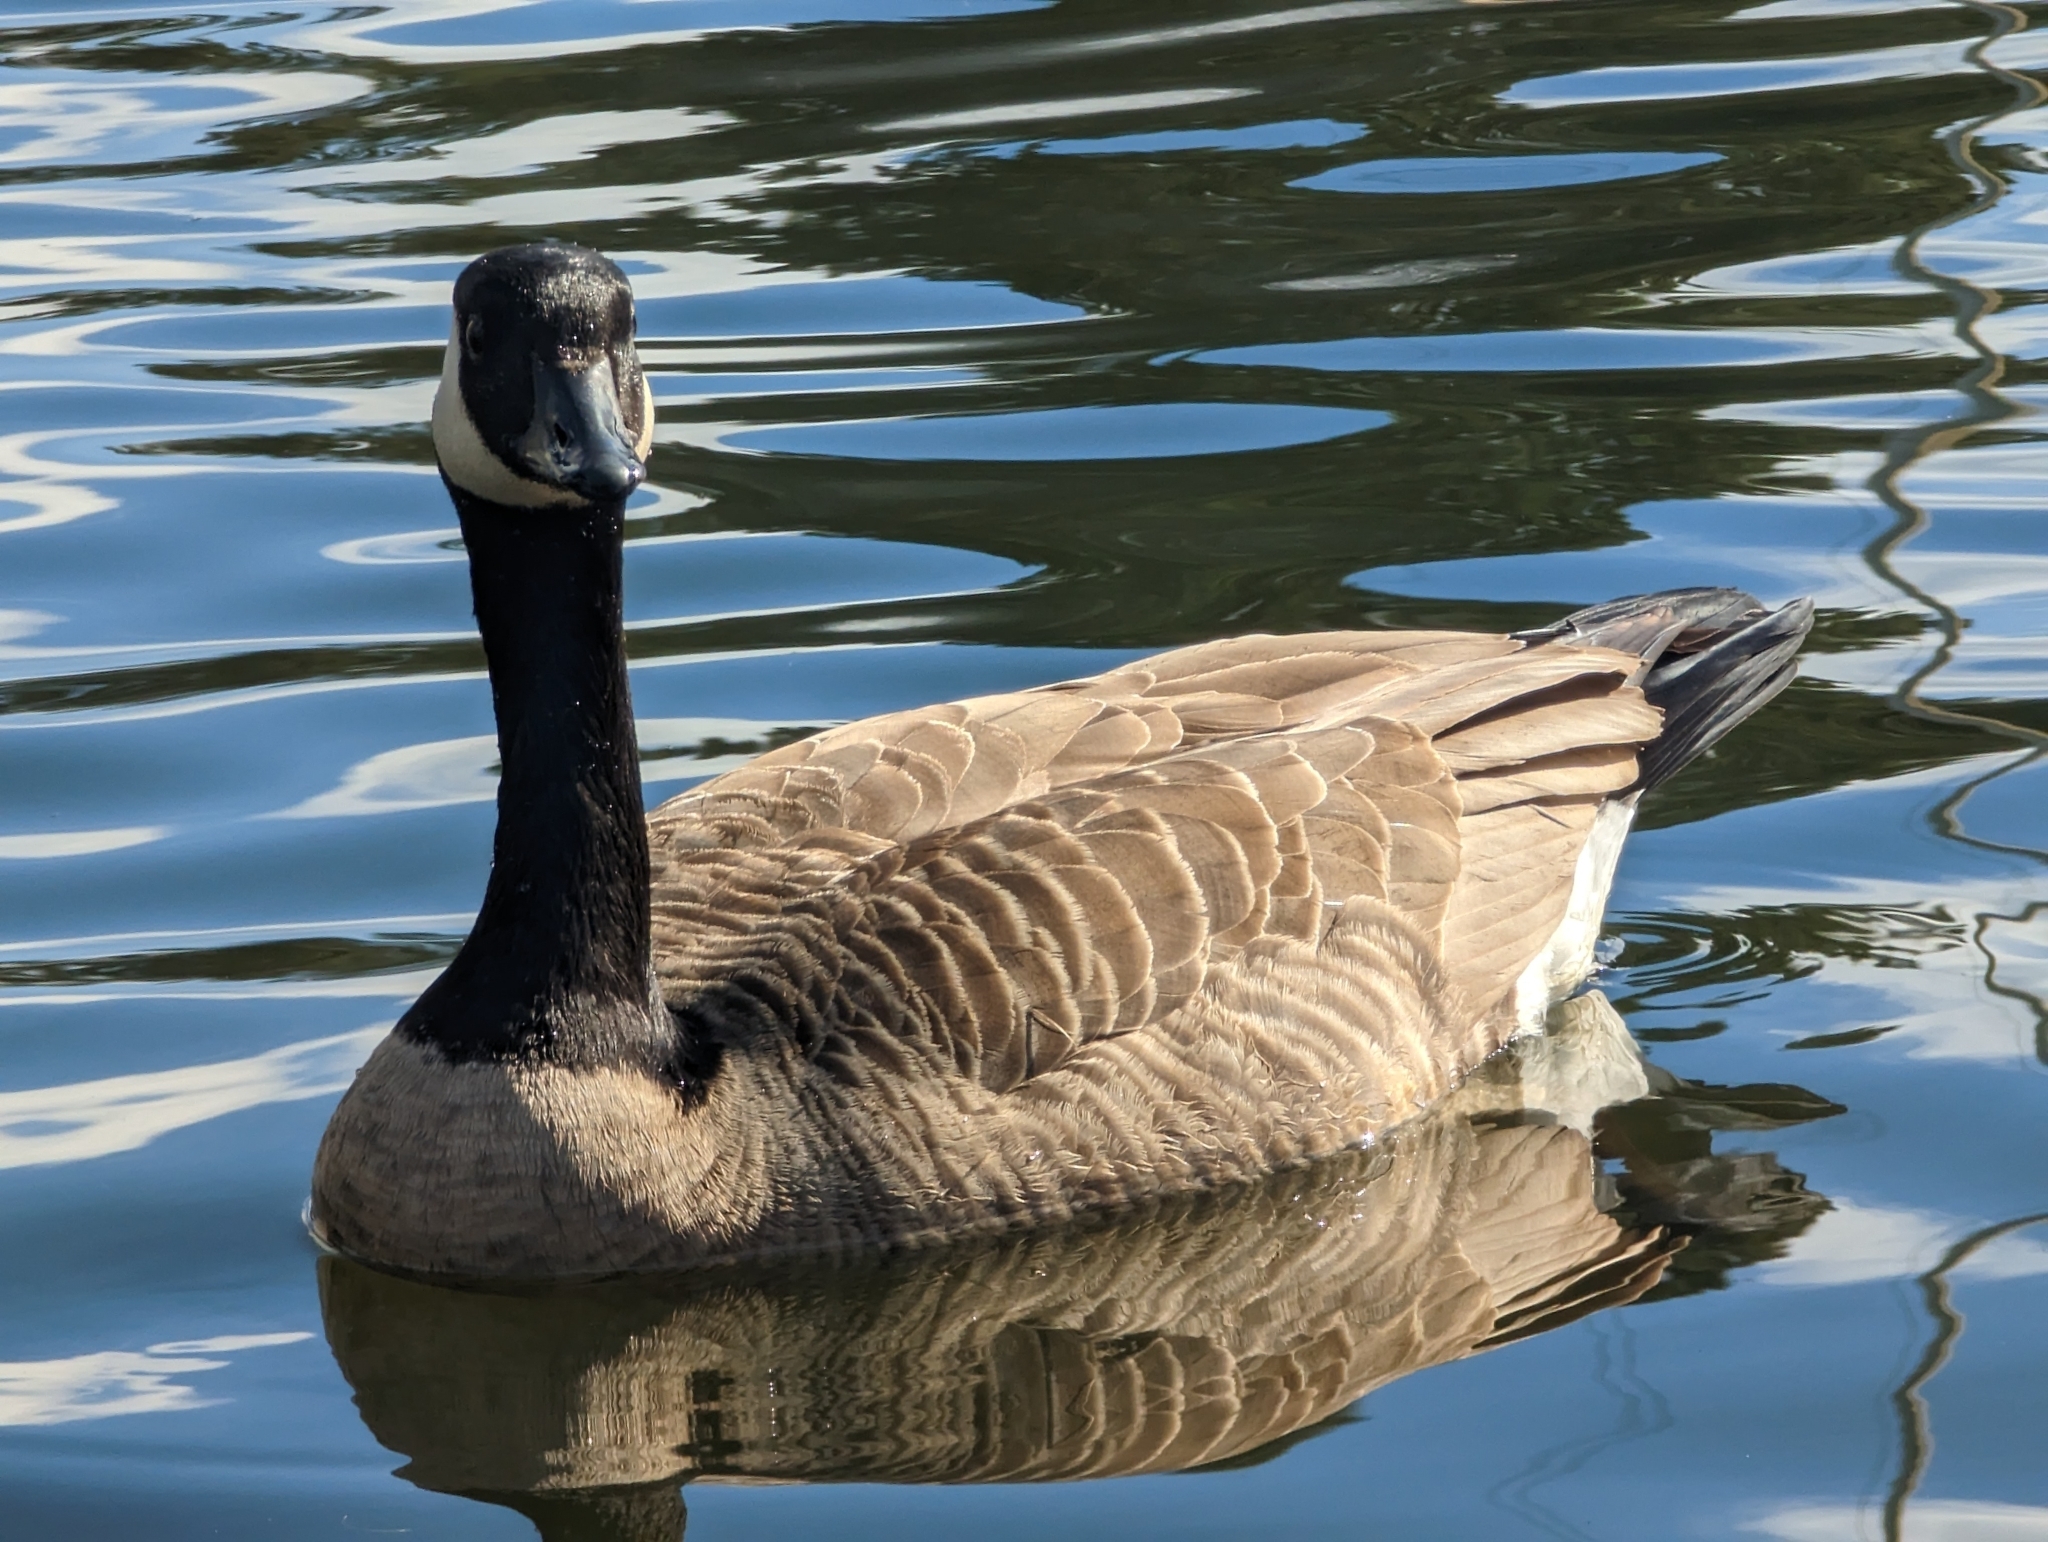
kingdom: Animalia
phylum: Chordata
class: Aves
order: Anseriformes
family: Anatidae
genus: Branta
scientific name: Branta canadensis
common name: Canada goose
